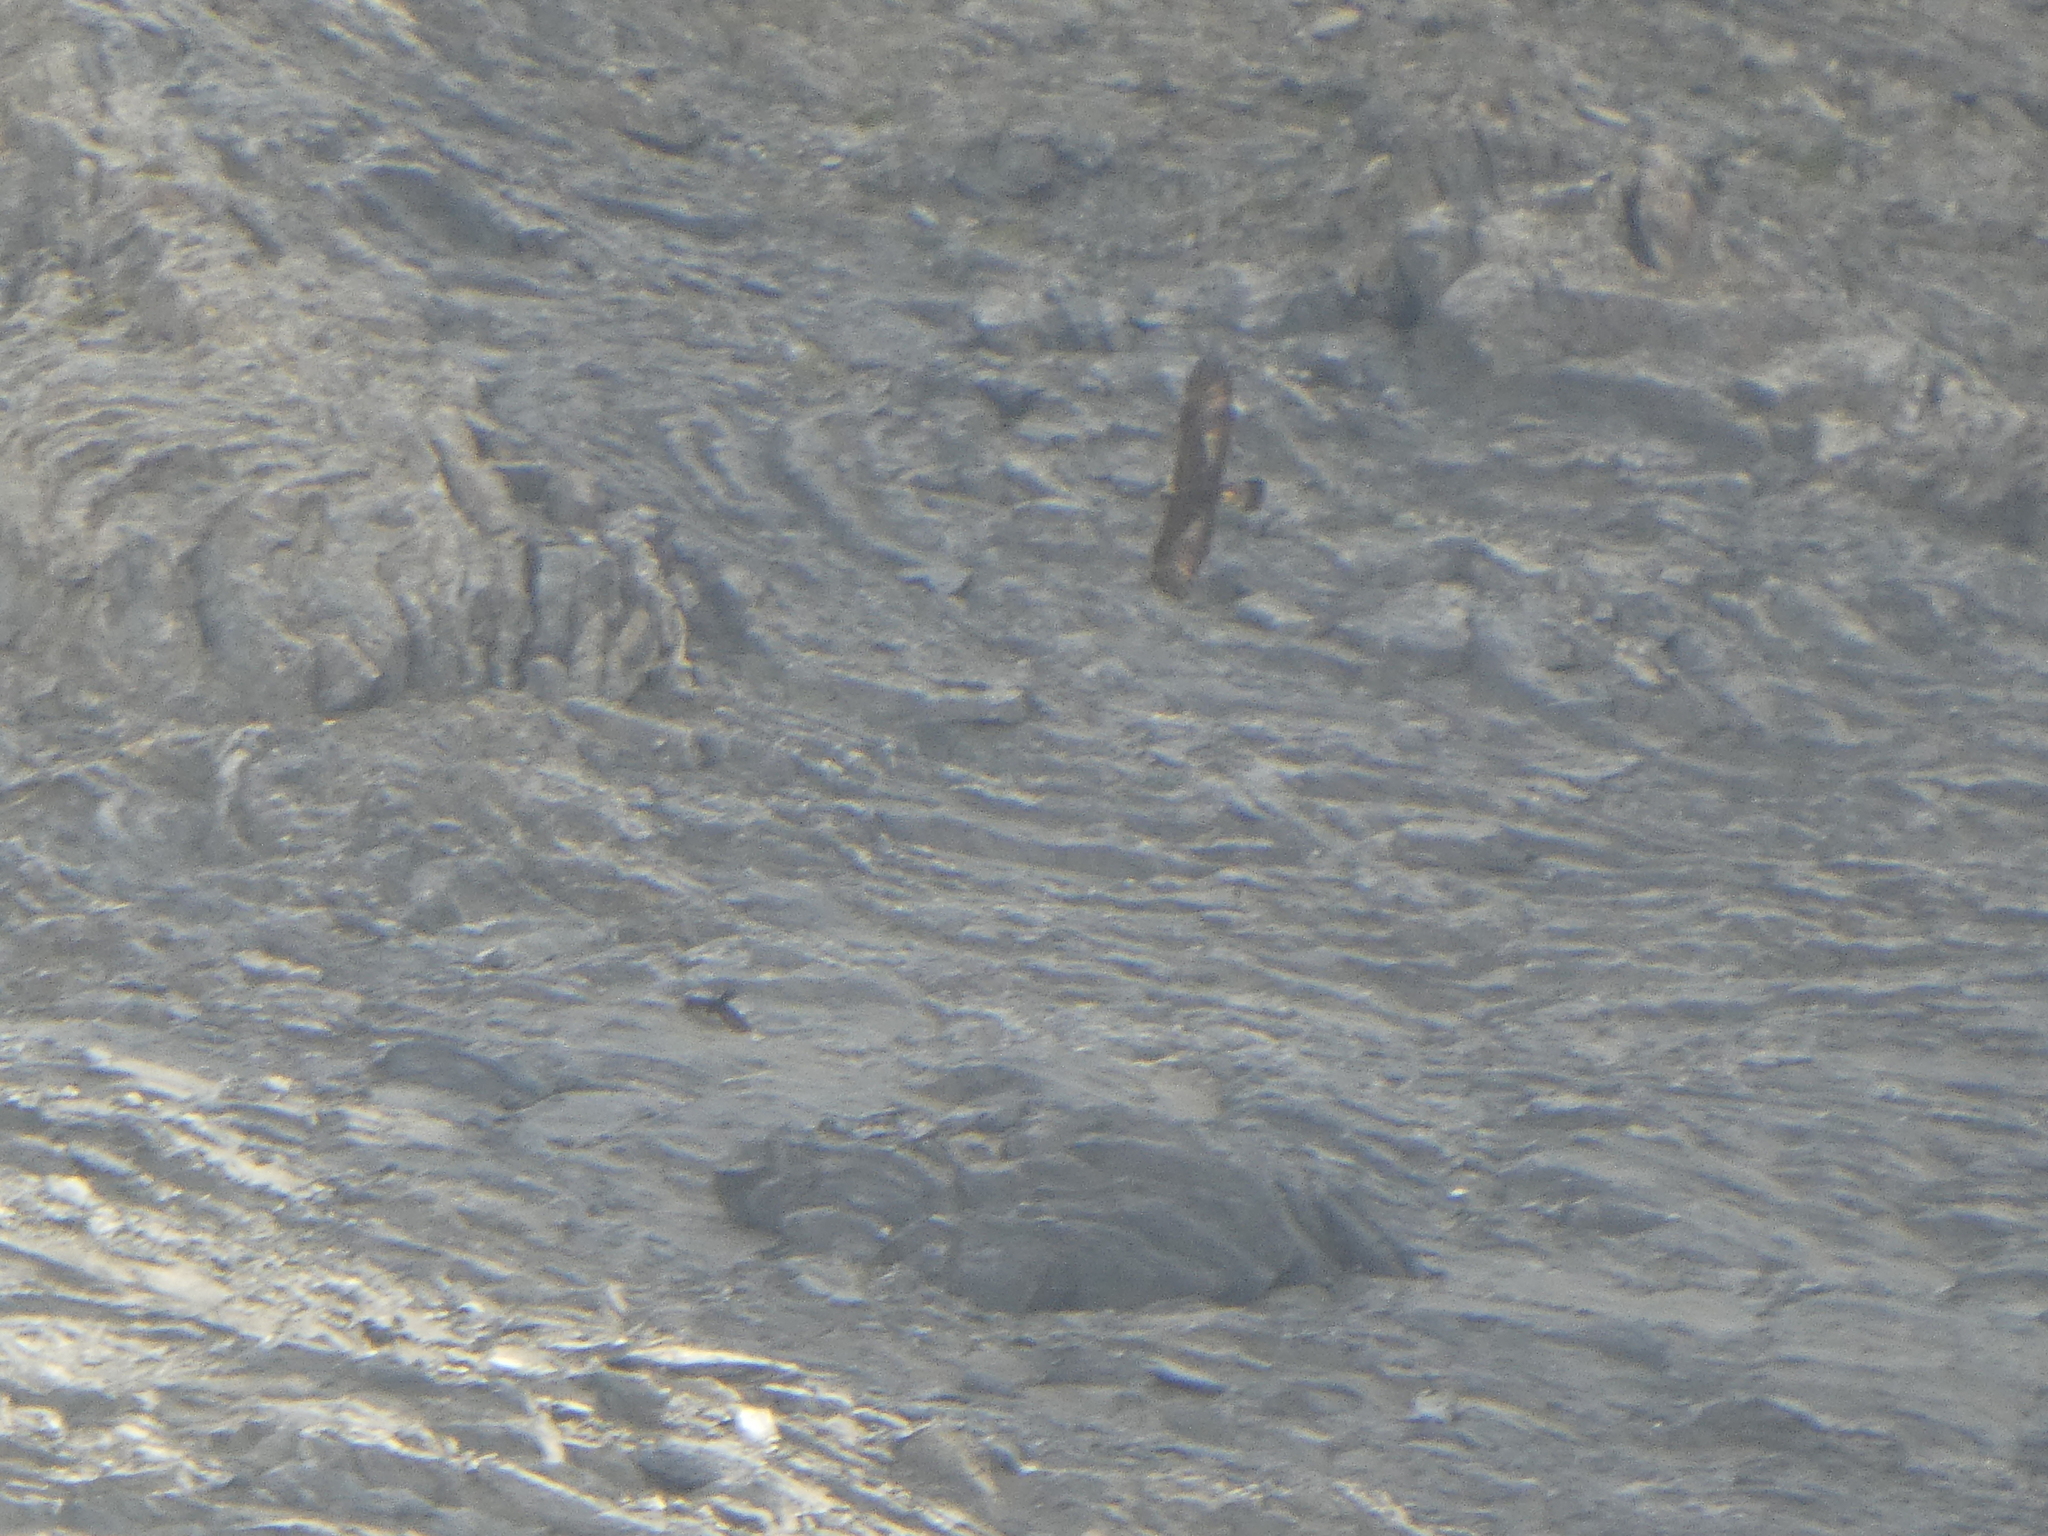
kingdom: Animalia
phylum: Chordata
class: Aves
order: Accipitriformes
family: Accipitridae
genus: Aquila
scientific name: Aquila chrysaetos
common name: Golden eagle
